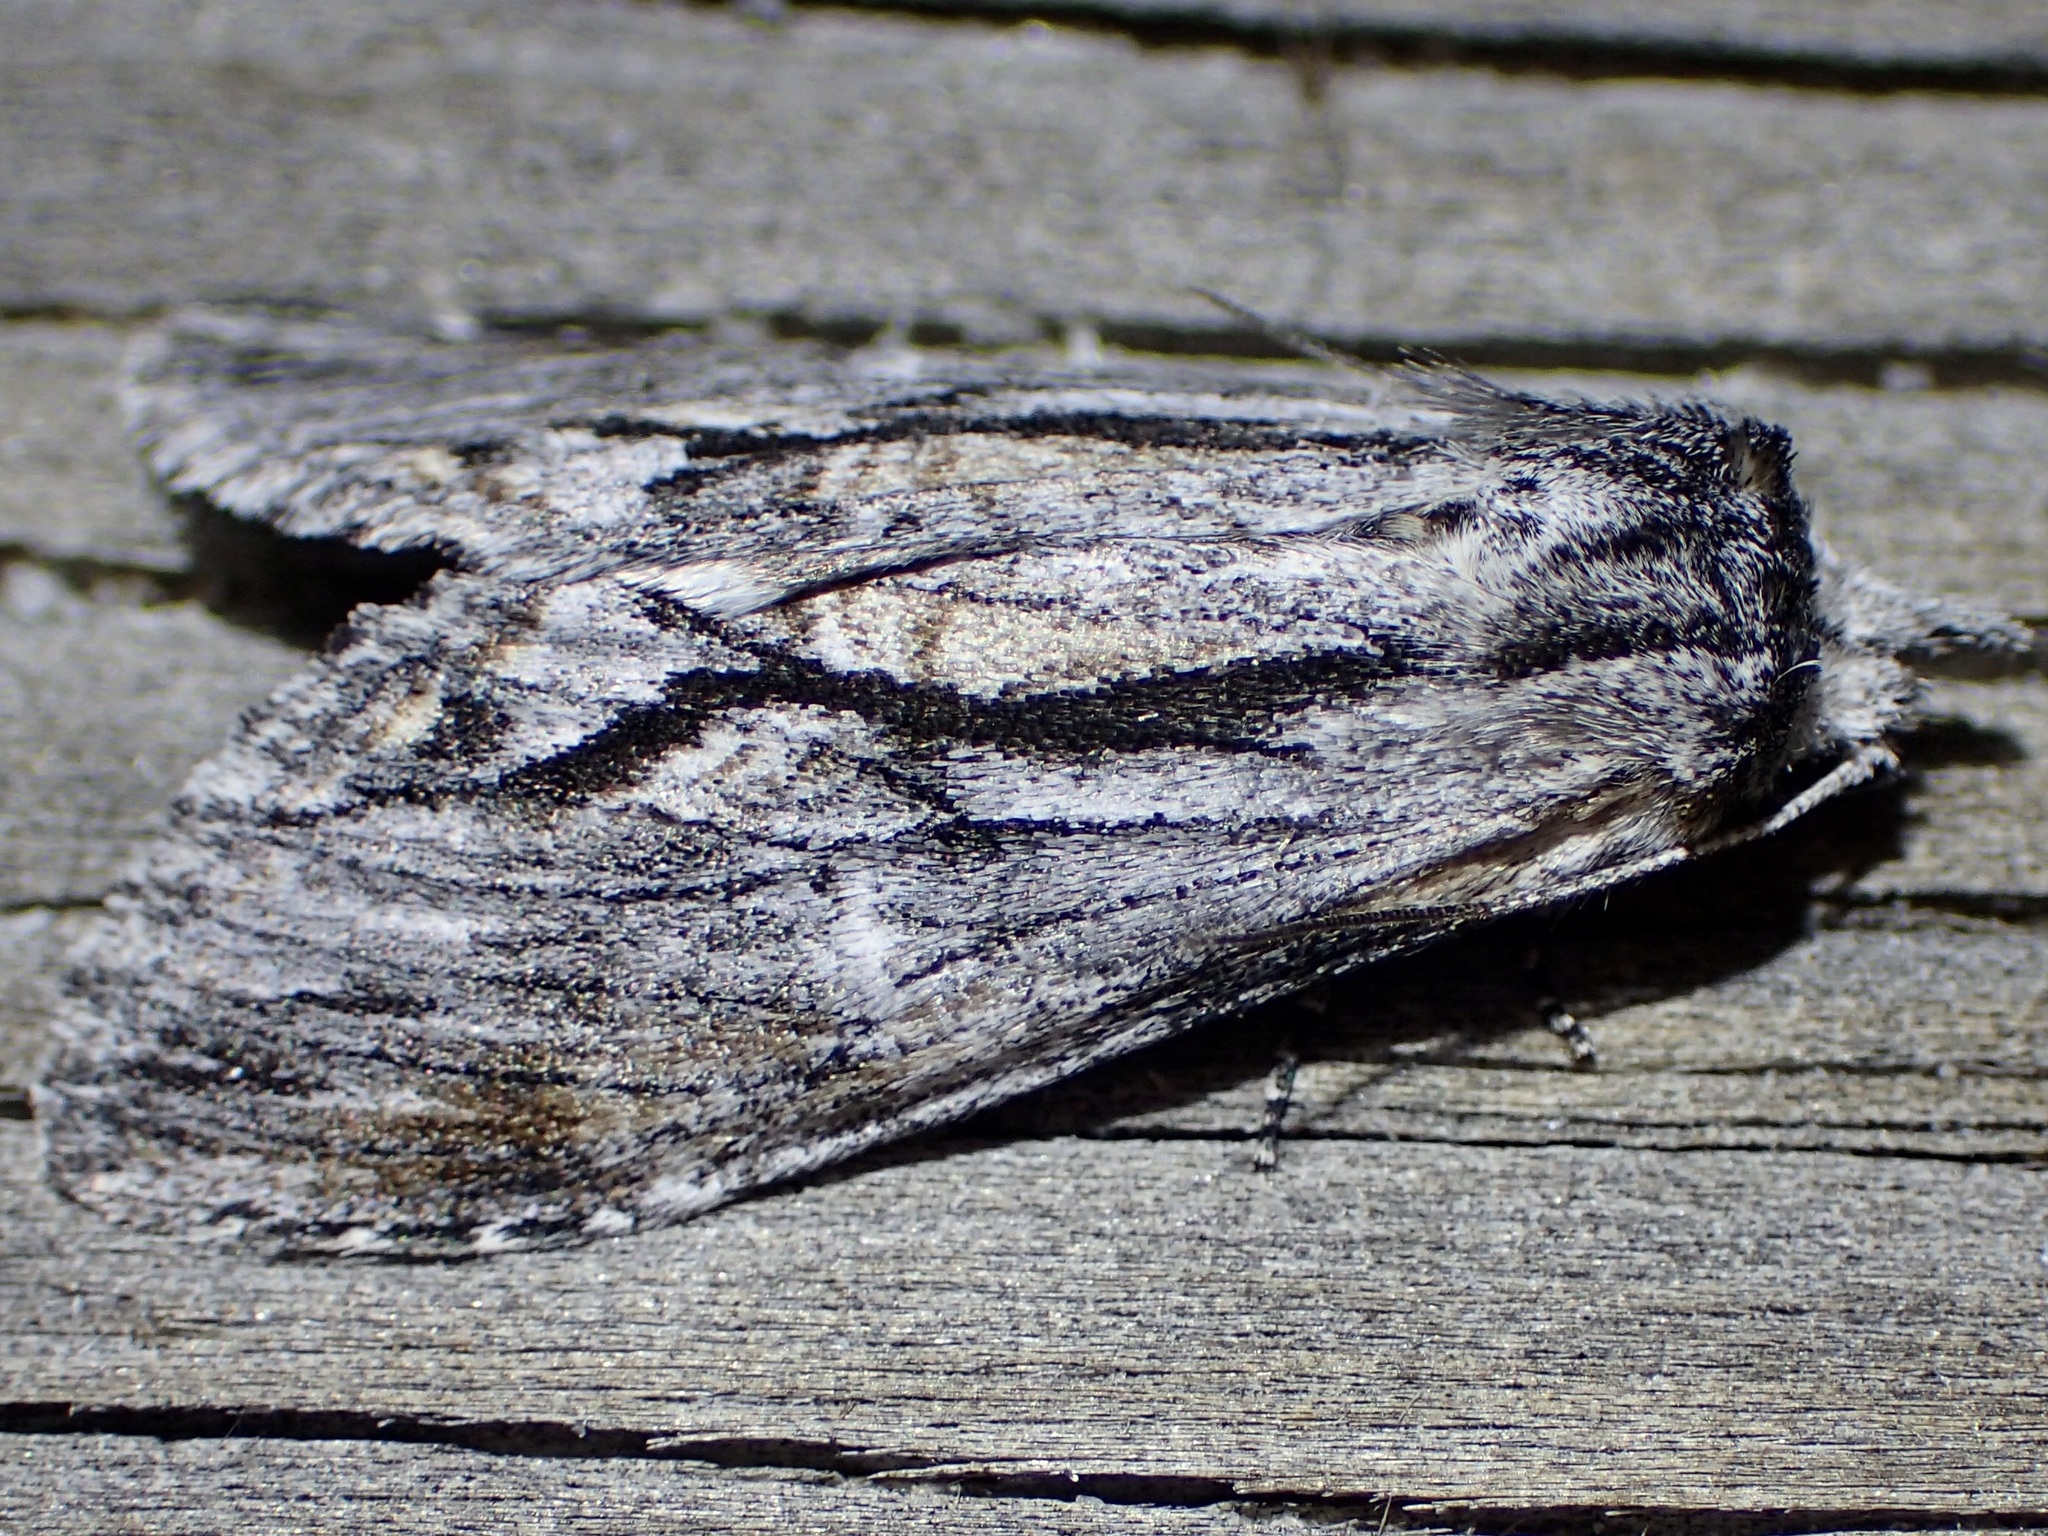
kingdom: Animalia
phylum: Arthropoda
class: Insecta
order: Lepidoptera
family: Notodontidae
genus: Notela
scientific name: Notela jaliscana
